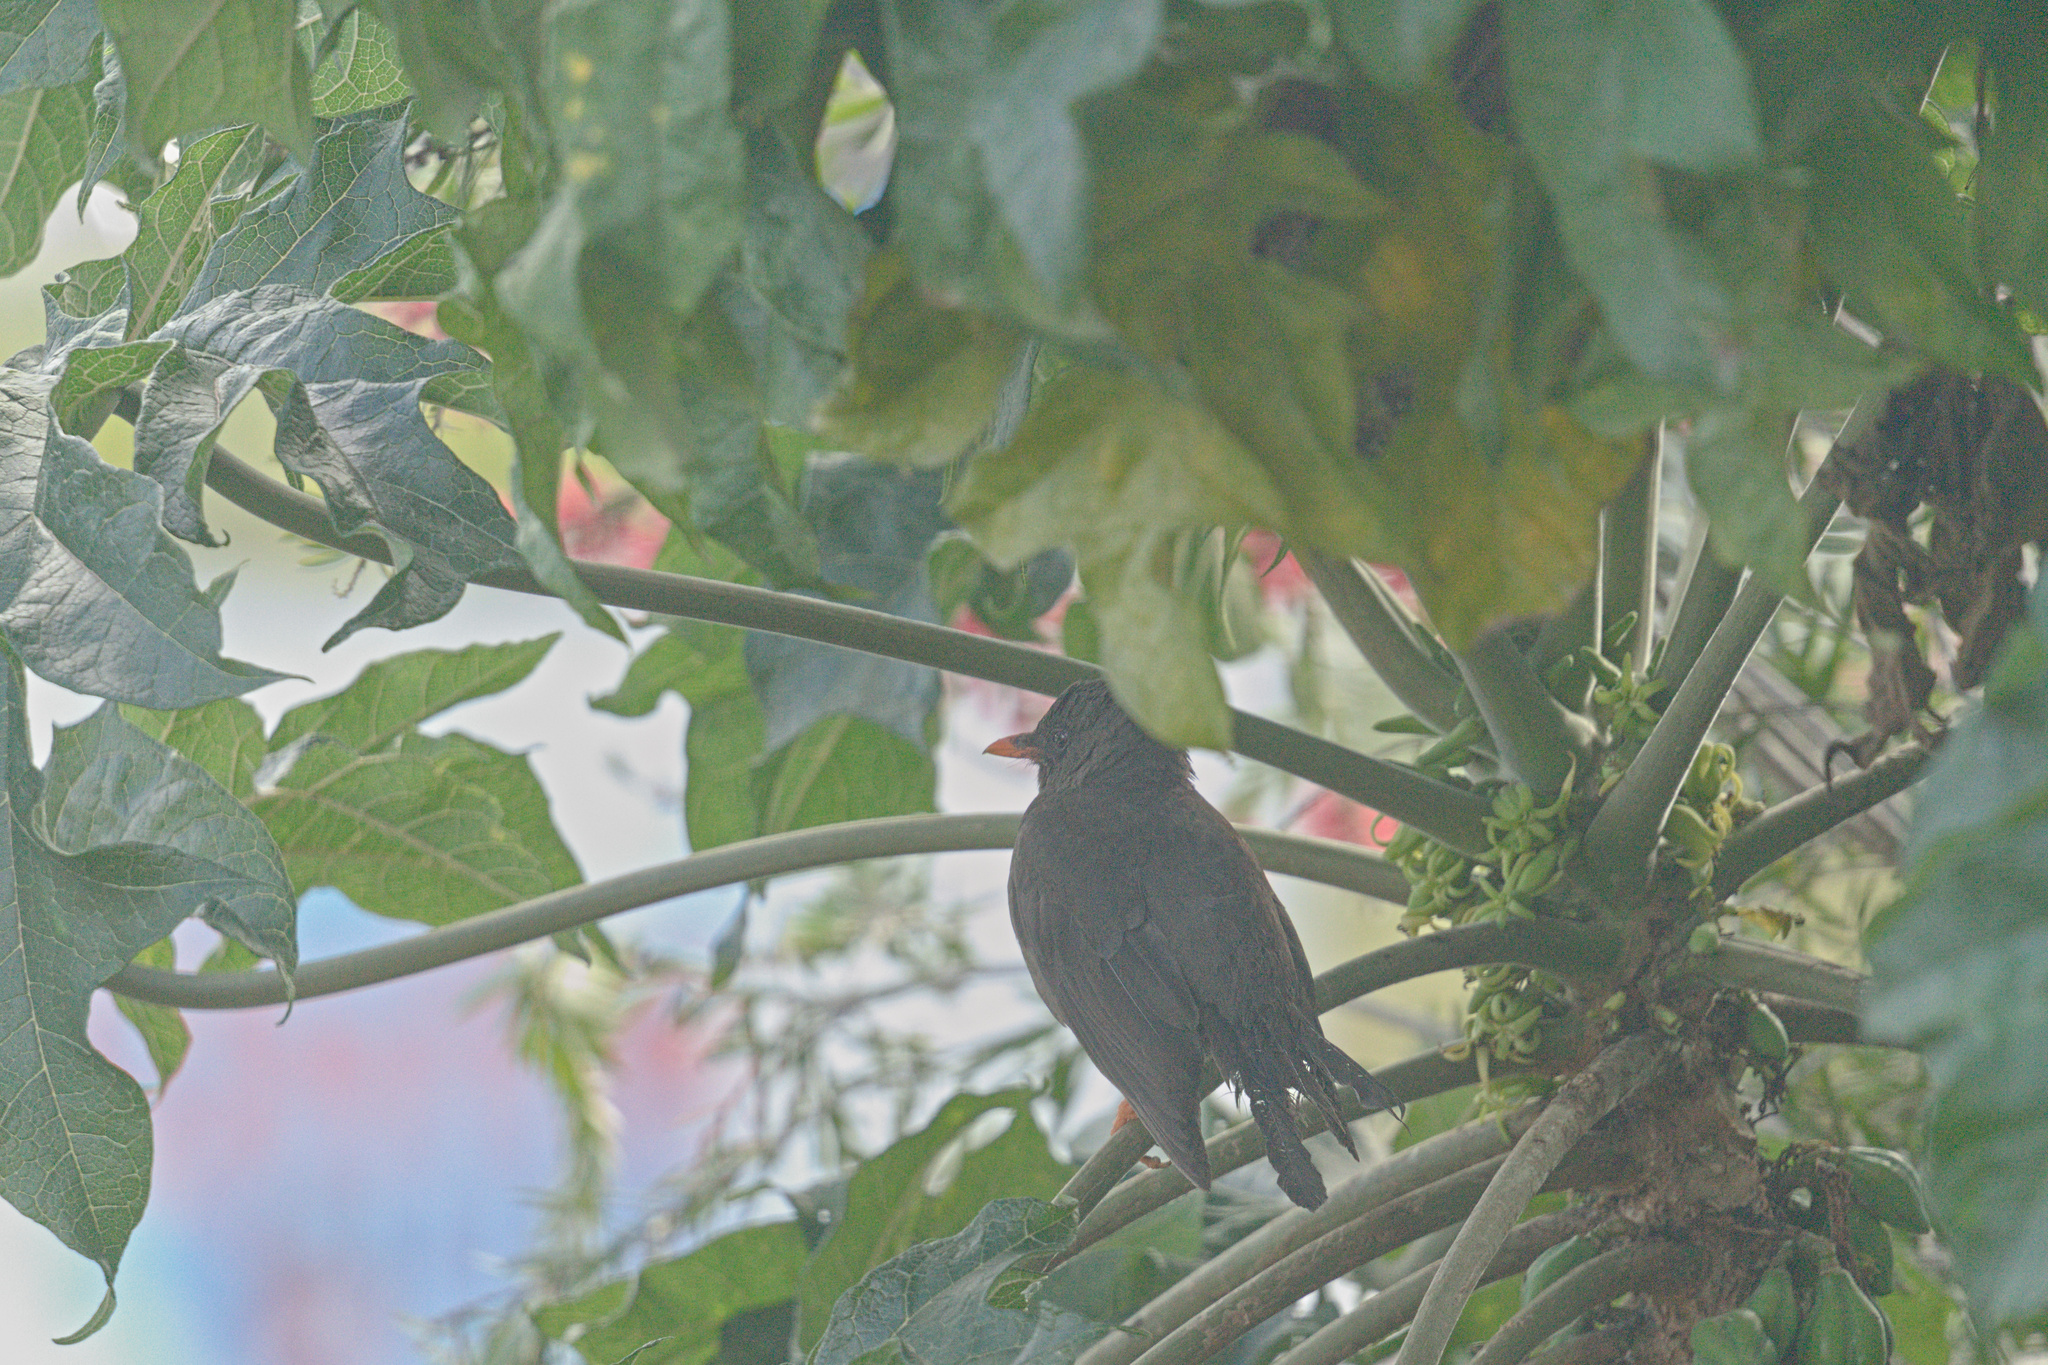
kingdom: Animalia
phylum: Chordata
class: Aves
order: Passeriformes
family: Turdidae
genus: Turdus
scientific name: Turdus fuscater
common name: Great thrush
